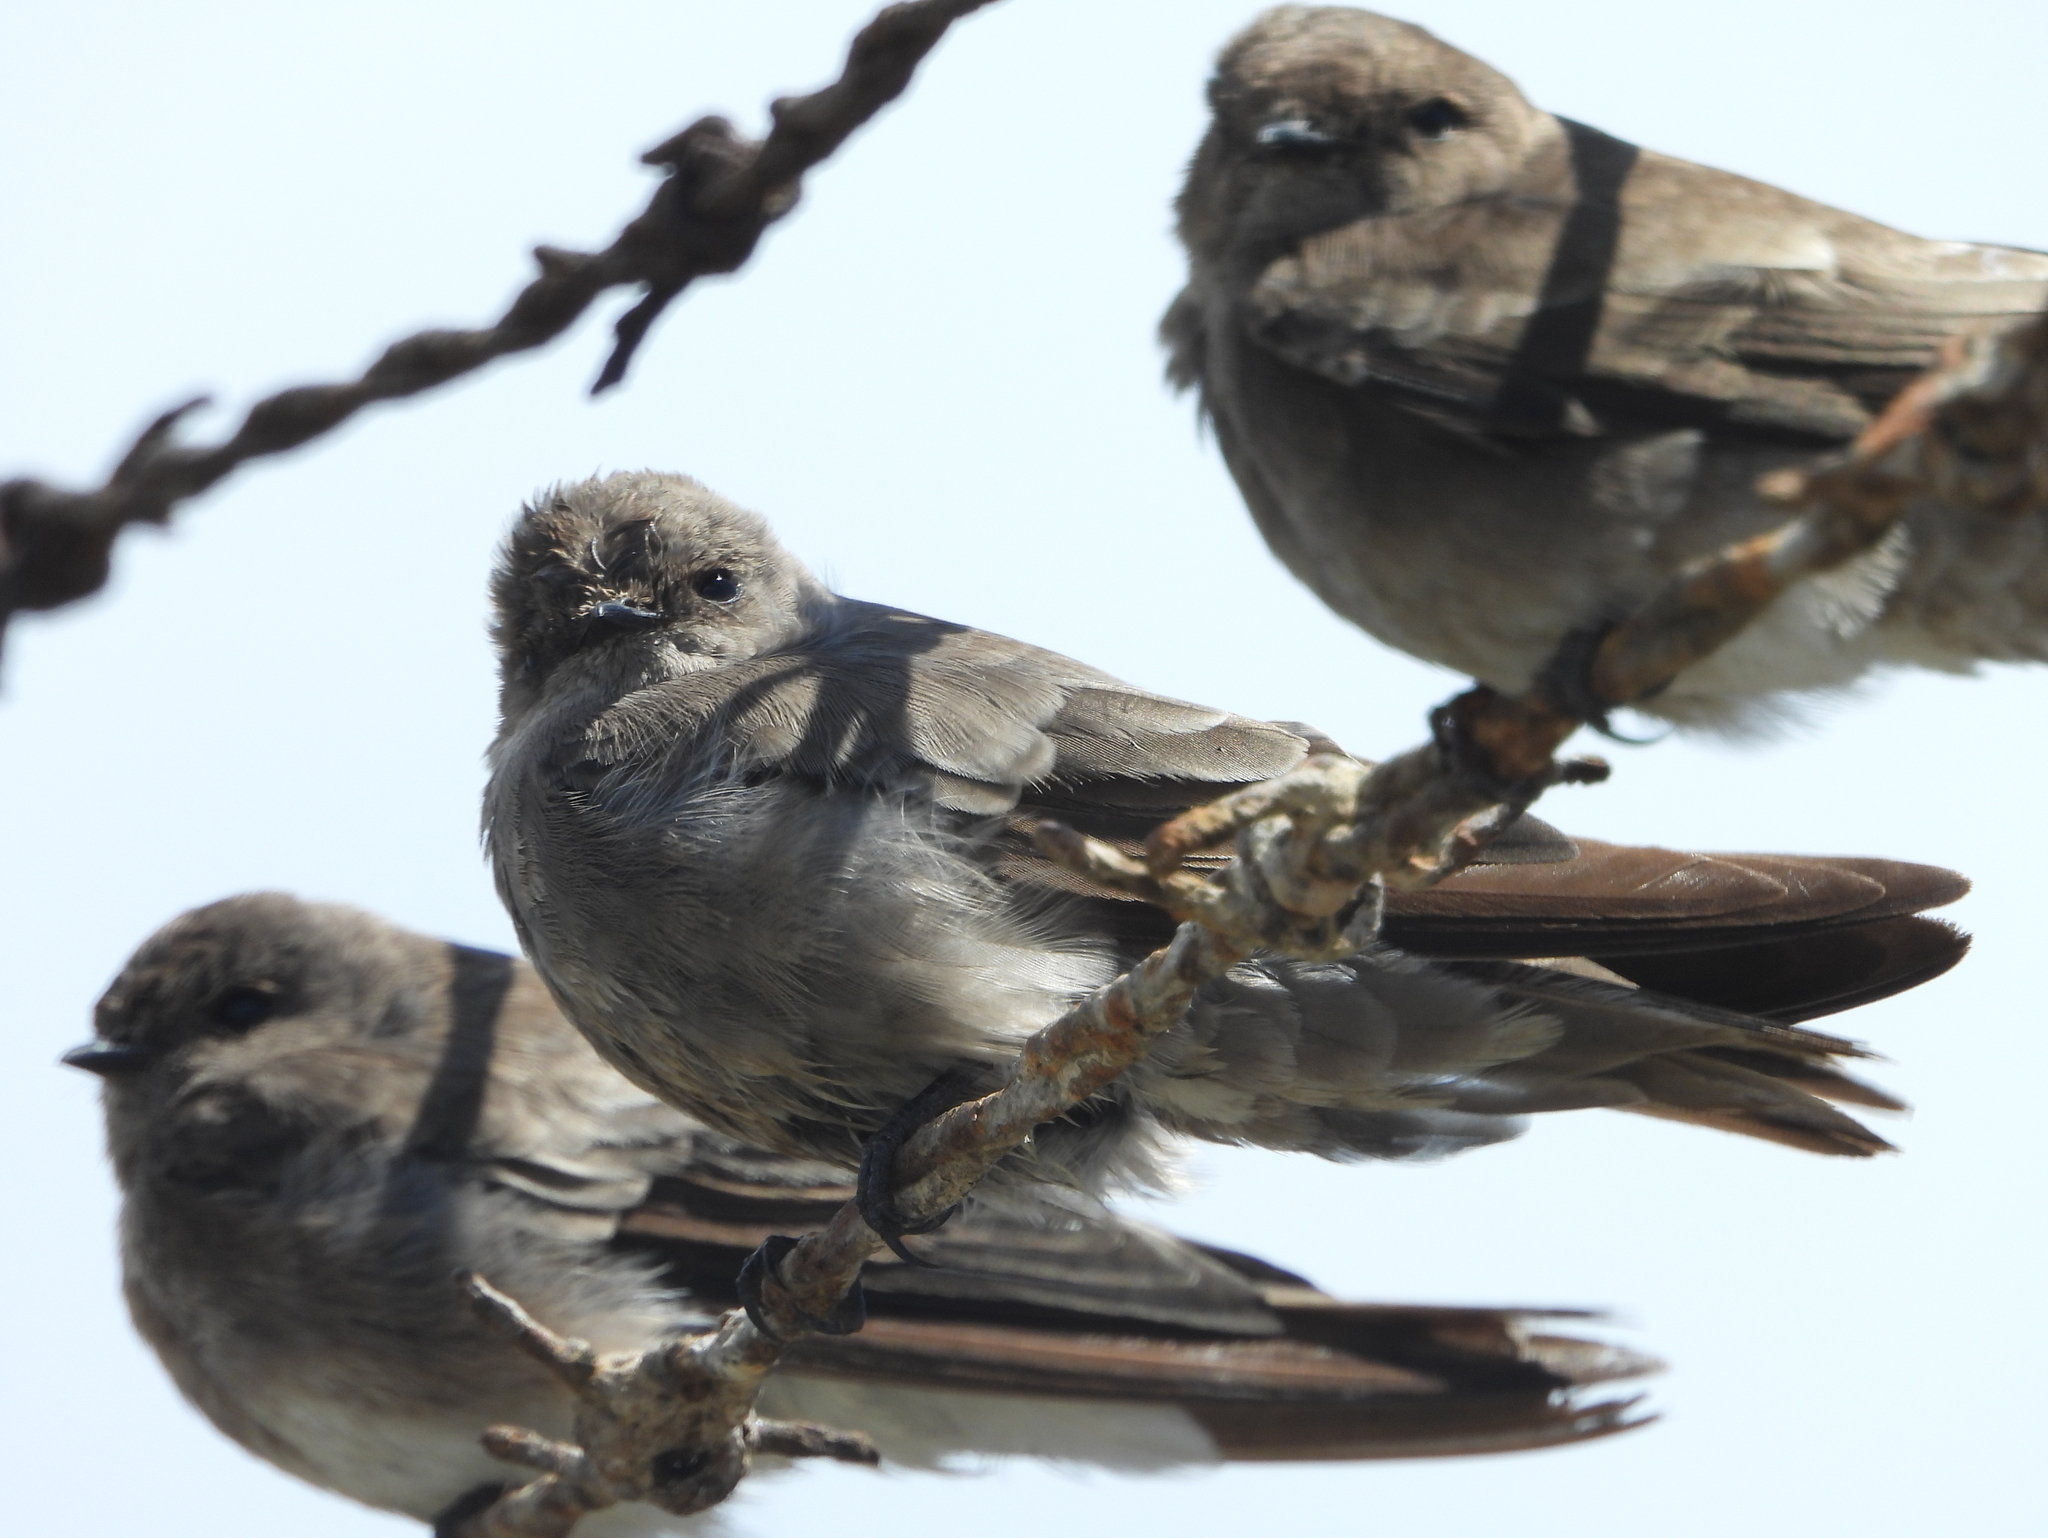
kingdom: Animalia
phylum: Chordata
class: Aves
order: Passeriformes
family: Hirundinidae
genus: Riparia
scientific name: Riparia paludicola
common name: Brown-throated martin
